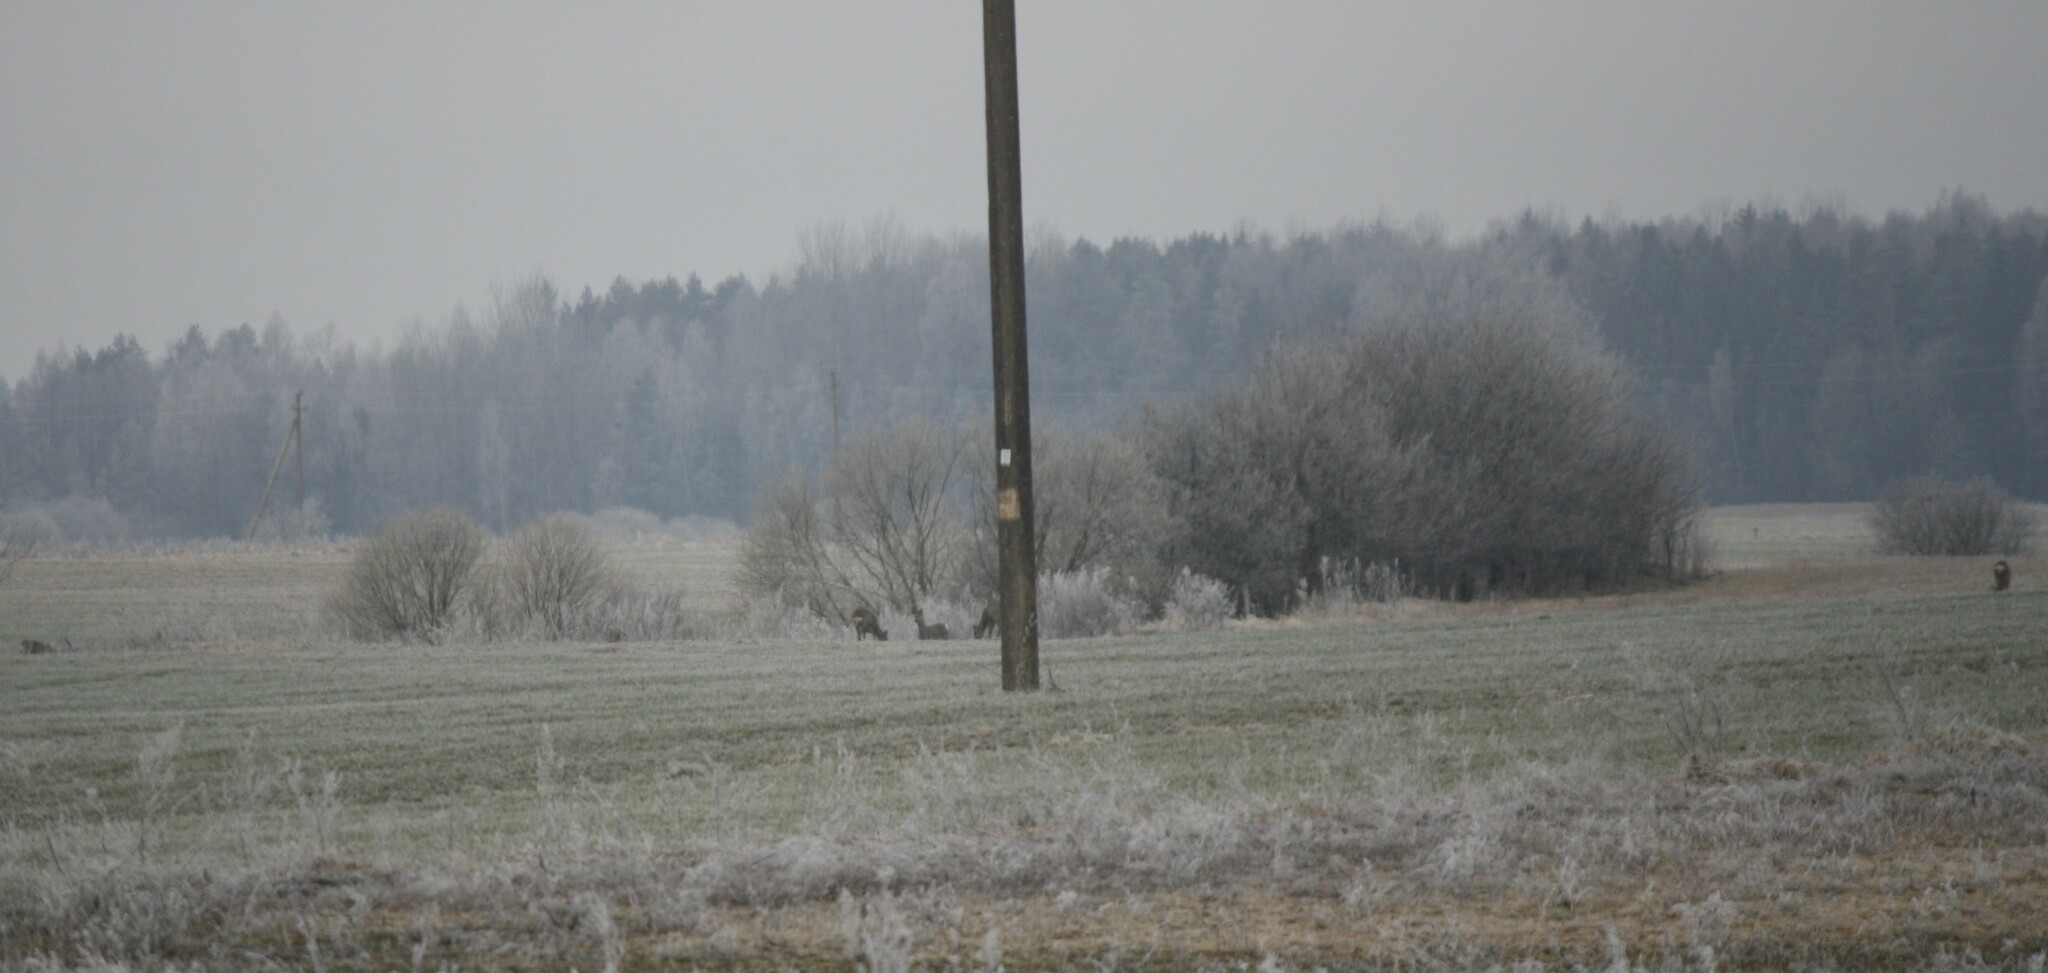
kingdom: Animalia
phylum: Chordata
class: Mammalia
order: Artiodactyla
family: Cervidae
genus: Capreolus
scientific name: Capreolus capreolus
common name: Western roe deer
